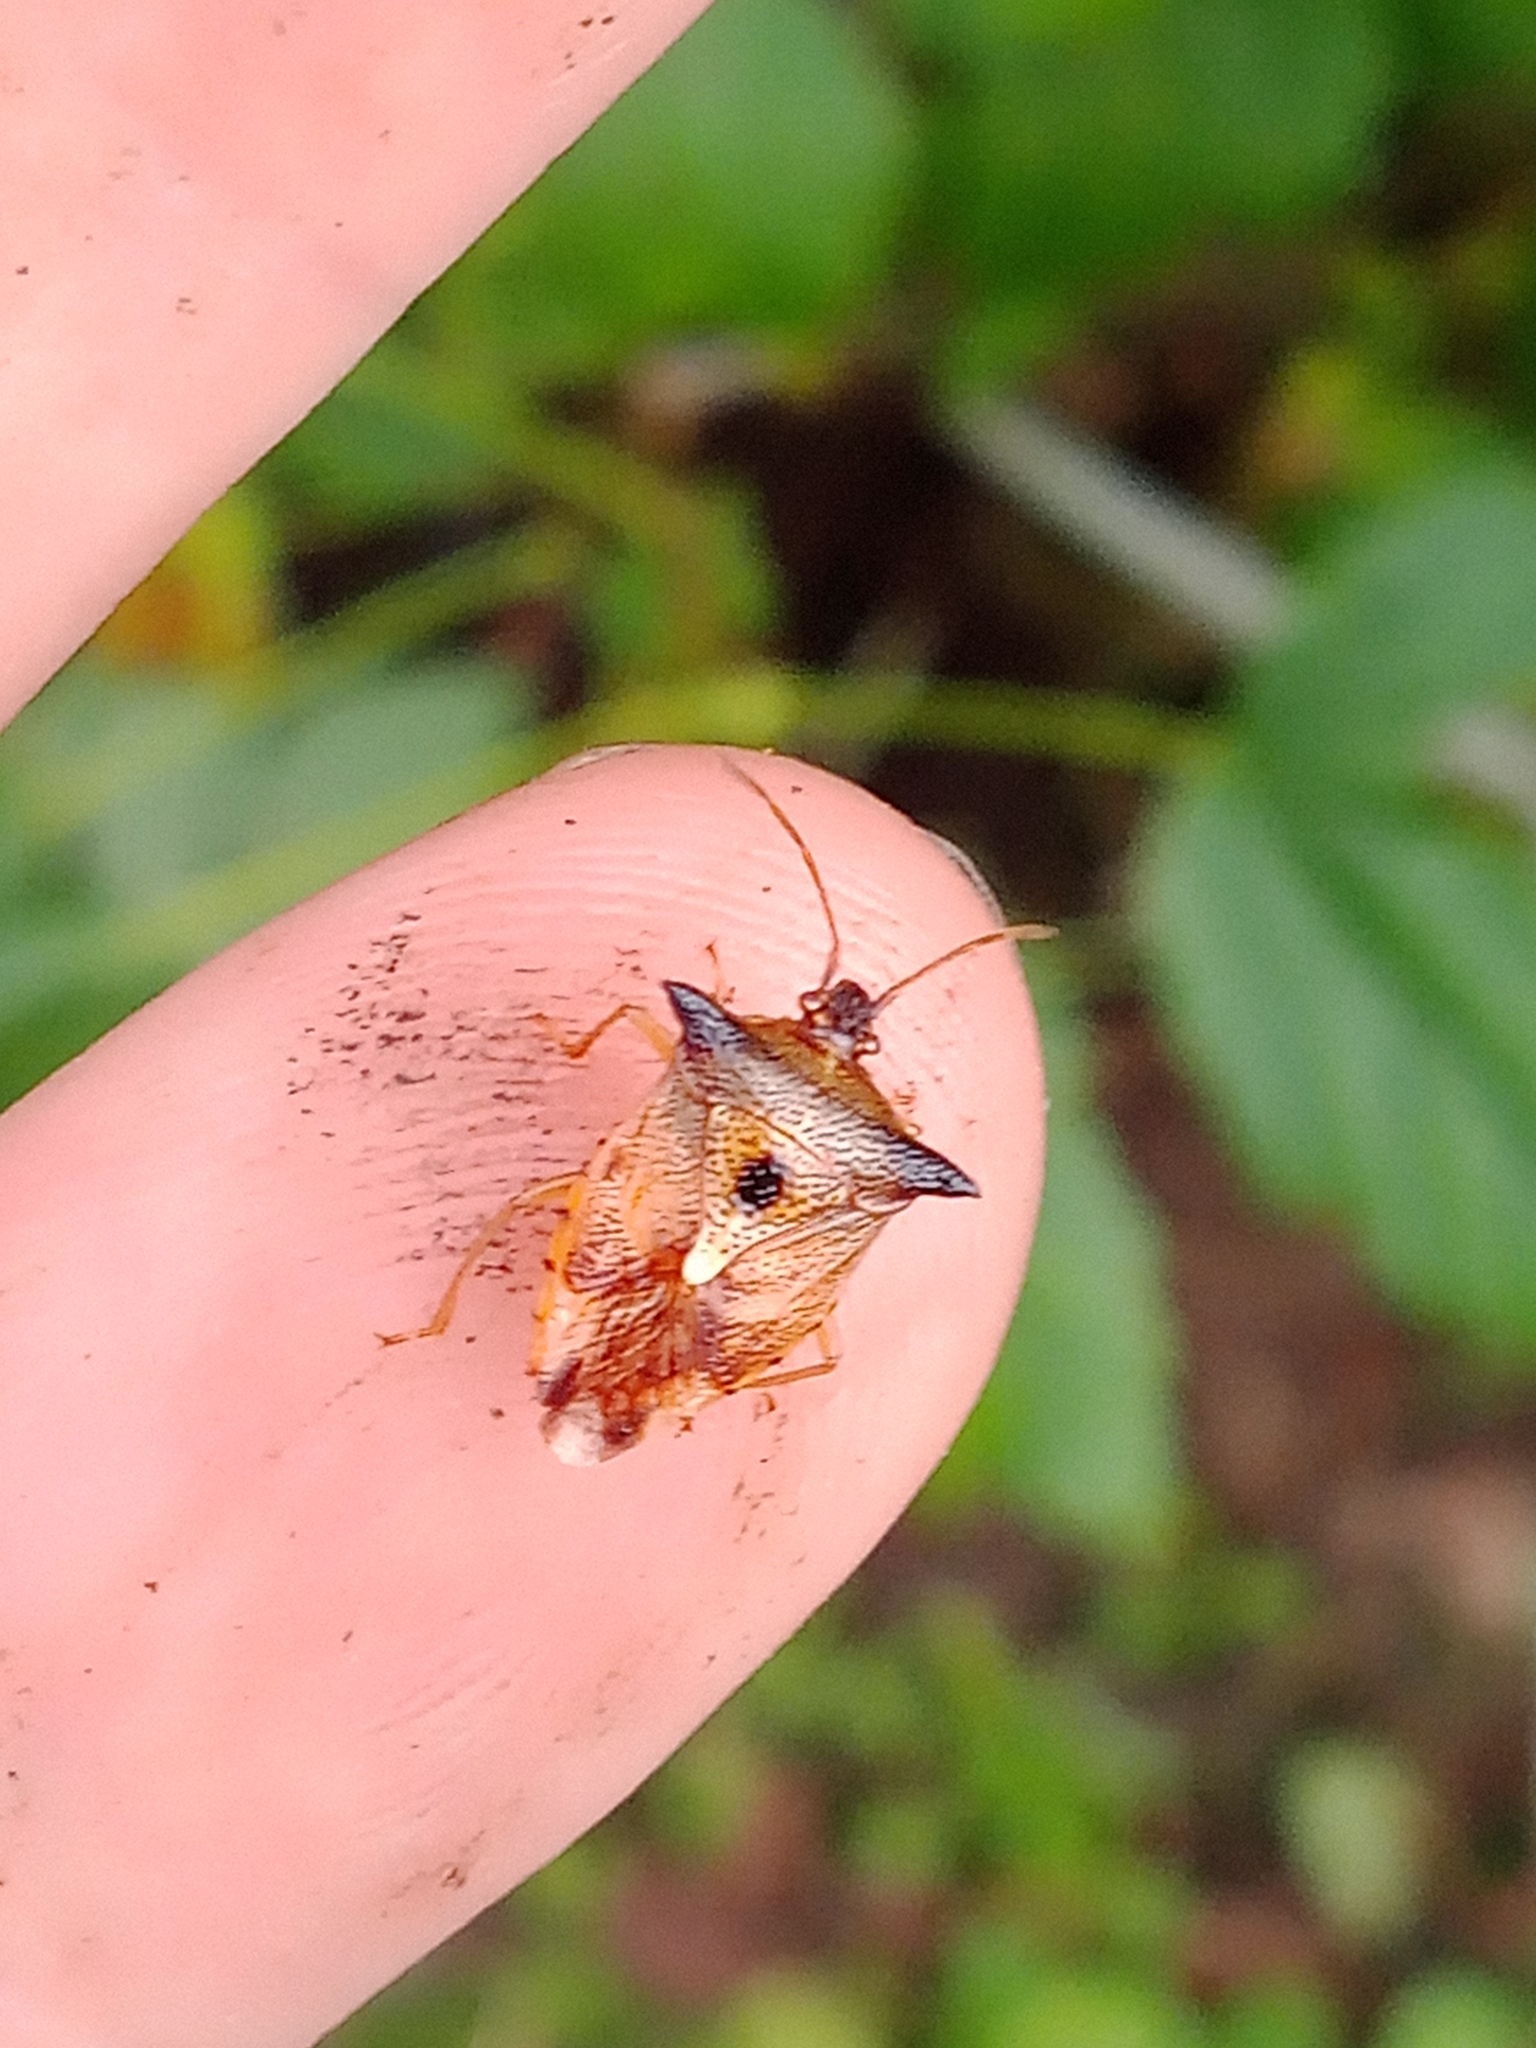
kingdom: Animalia
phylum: Arthropoda
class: Insecta
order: Hemiptera
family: Acanthosomatidae
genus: Elasmucha
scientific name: Elasmucha ferrugata
